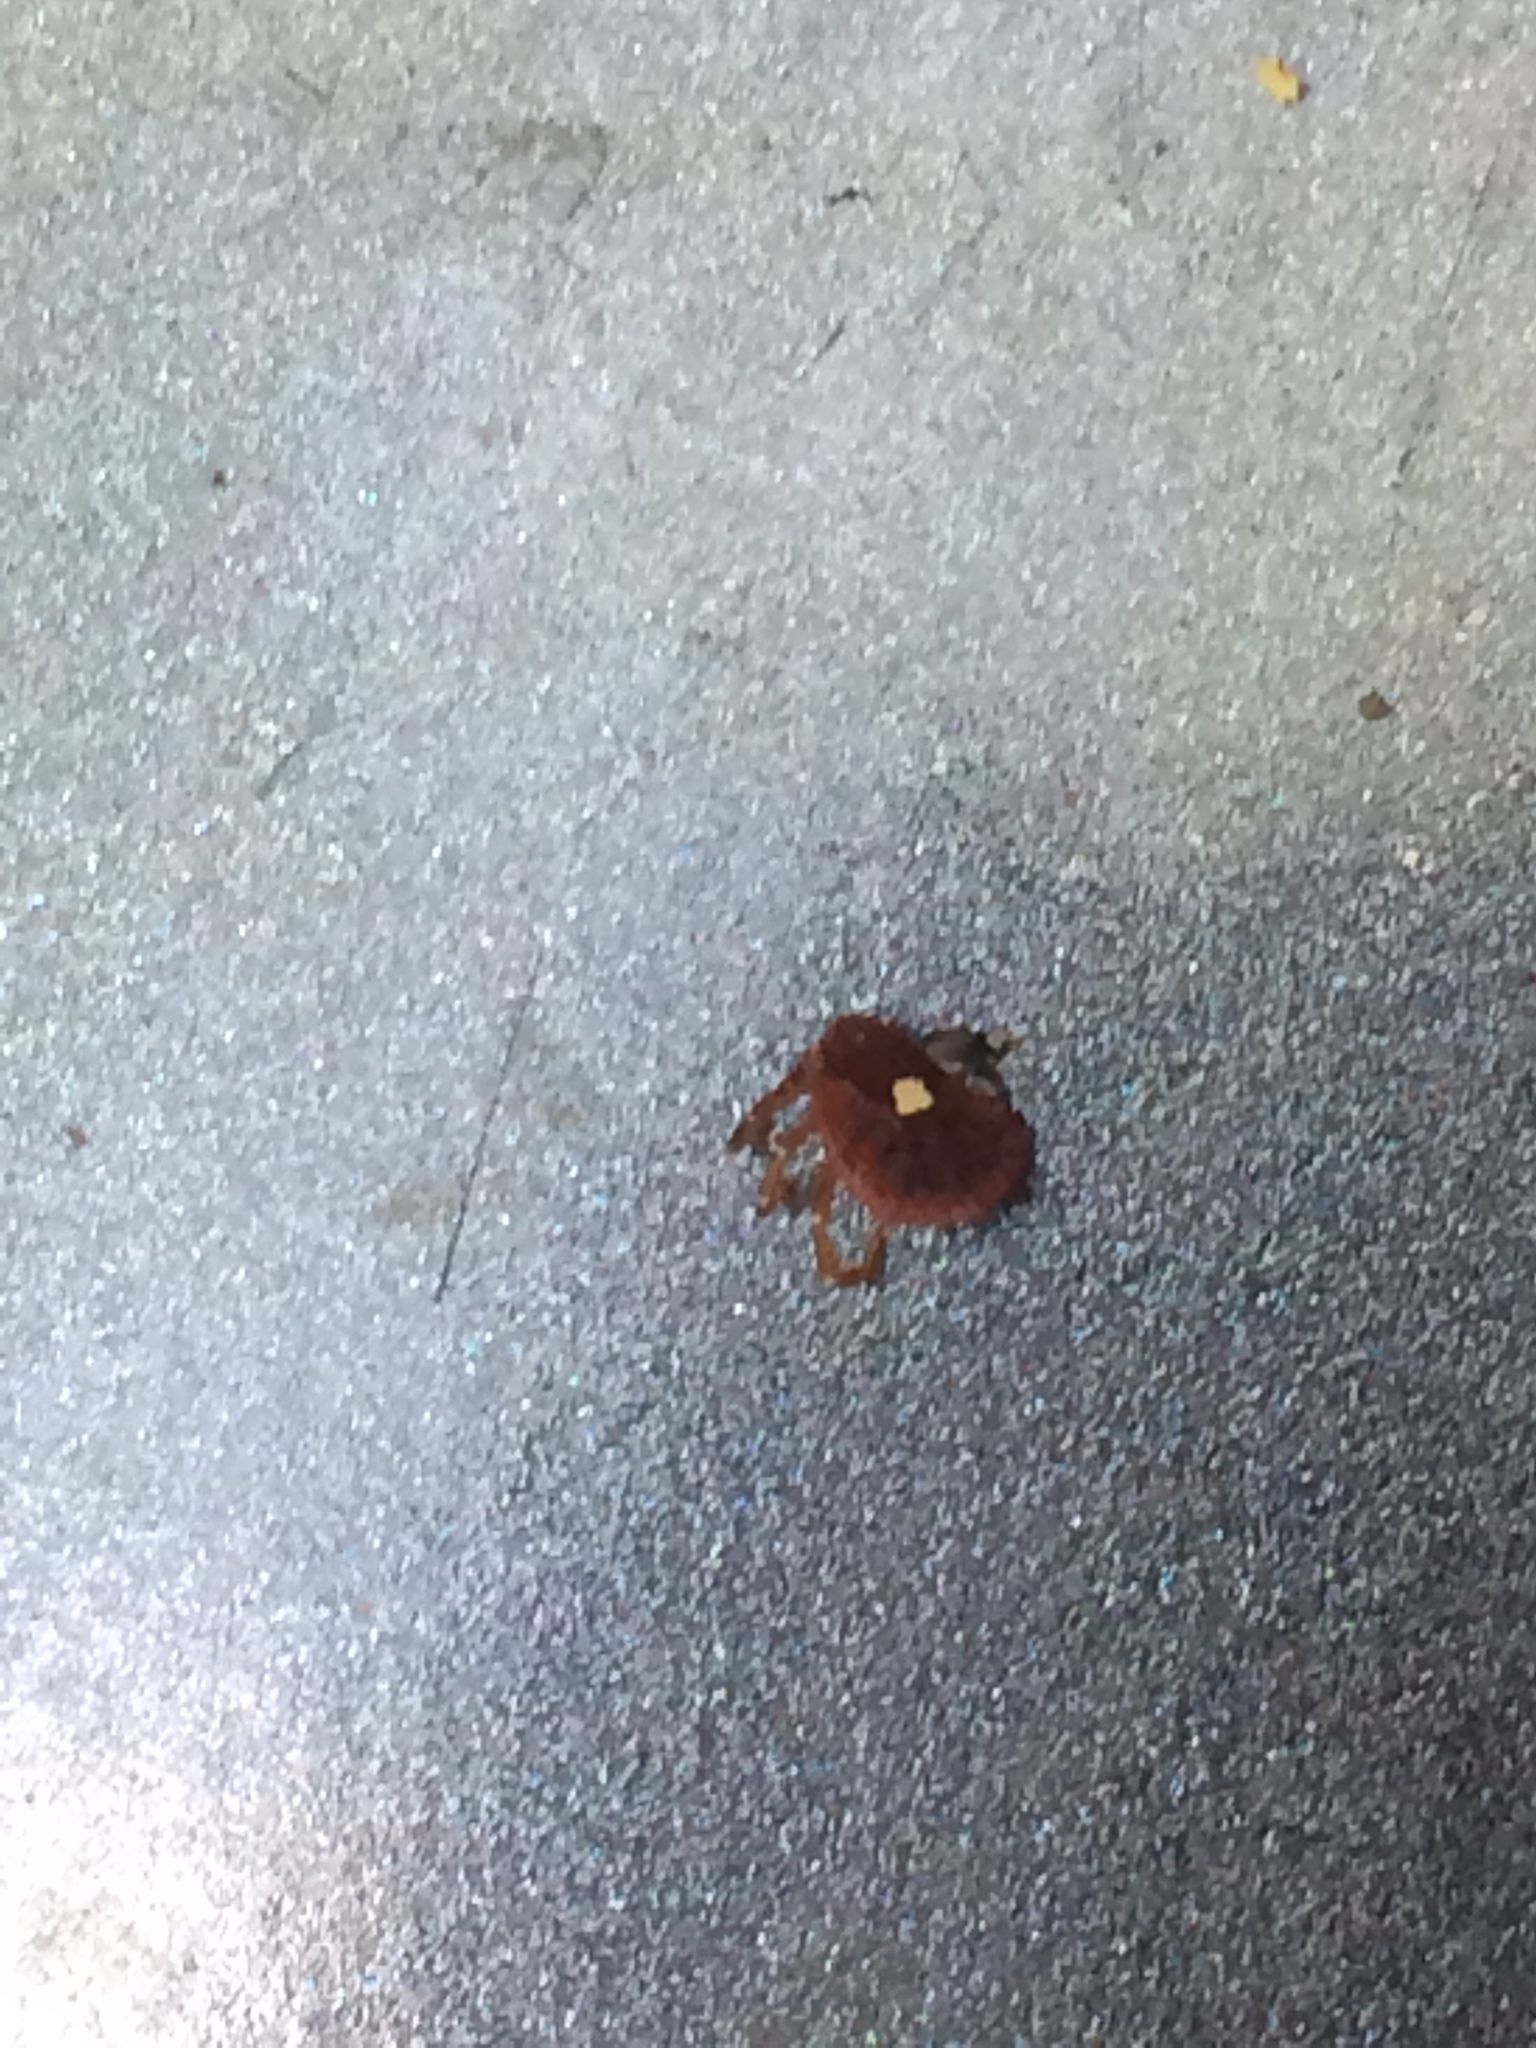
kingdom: Animalia
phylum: Arthropoda
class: Arachnida
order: Ixodida
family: Ixodidae
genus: Amblyomma
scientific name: Amblyomma americanum
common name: Lone star tick
